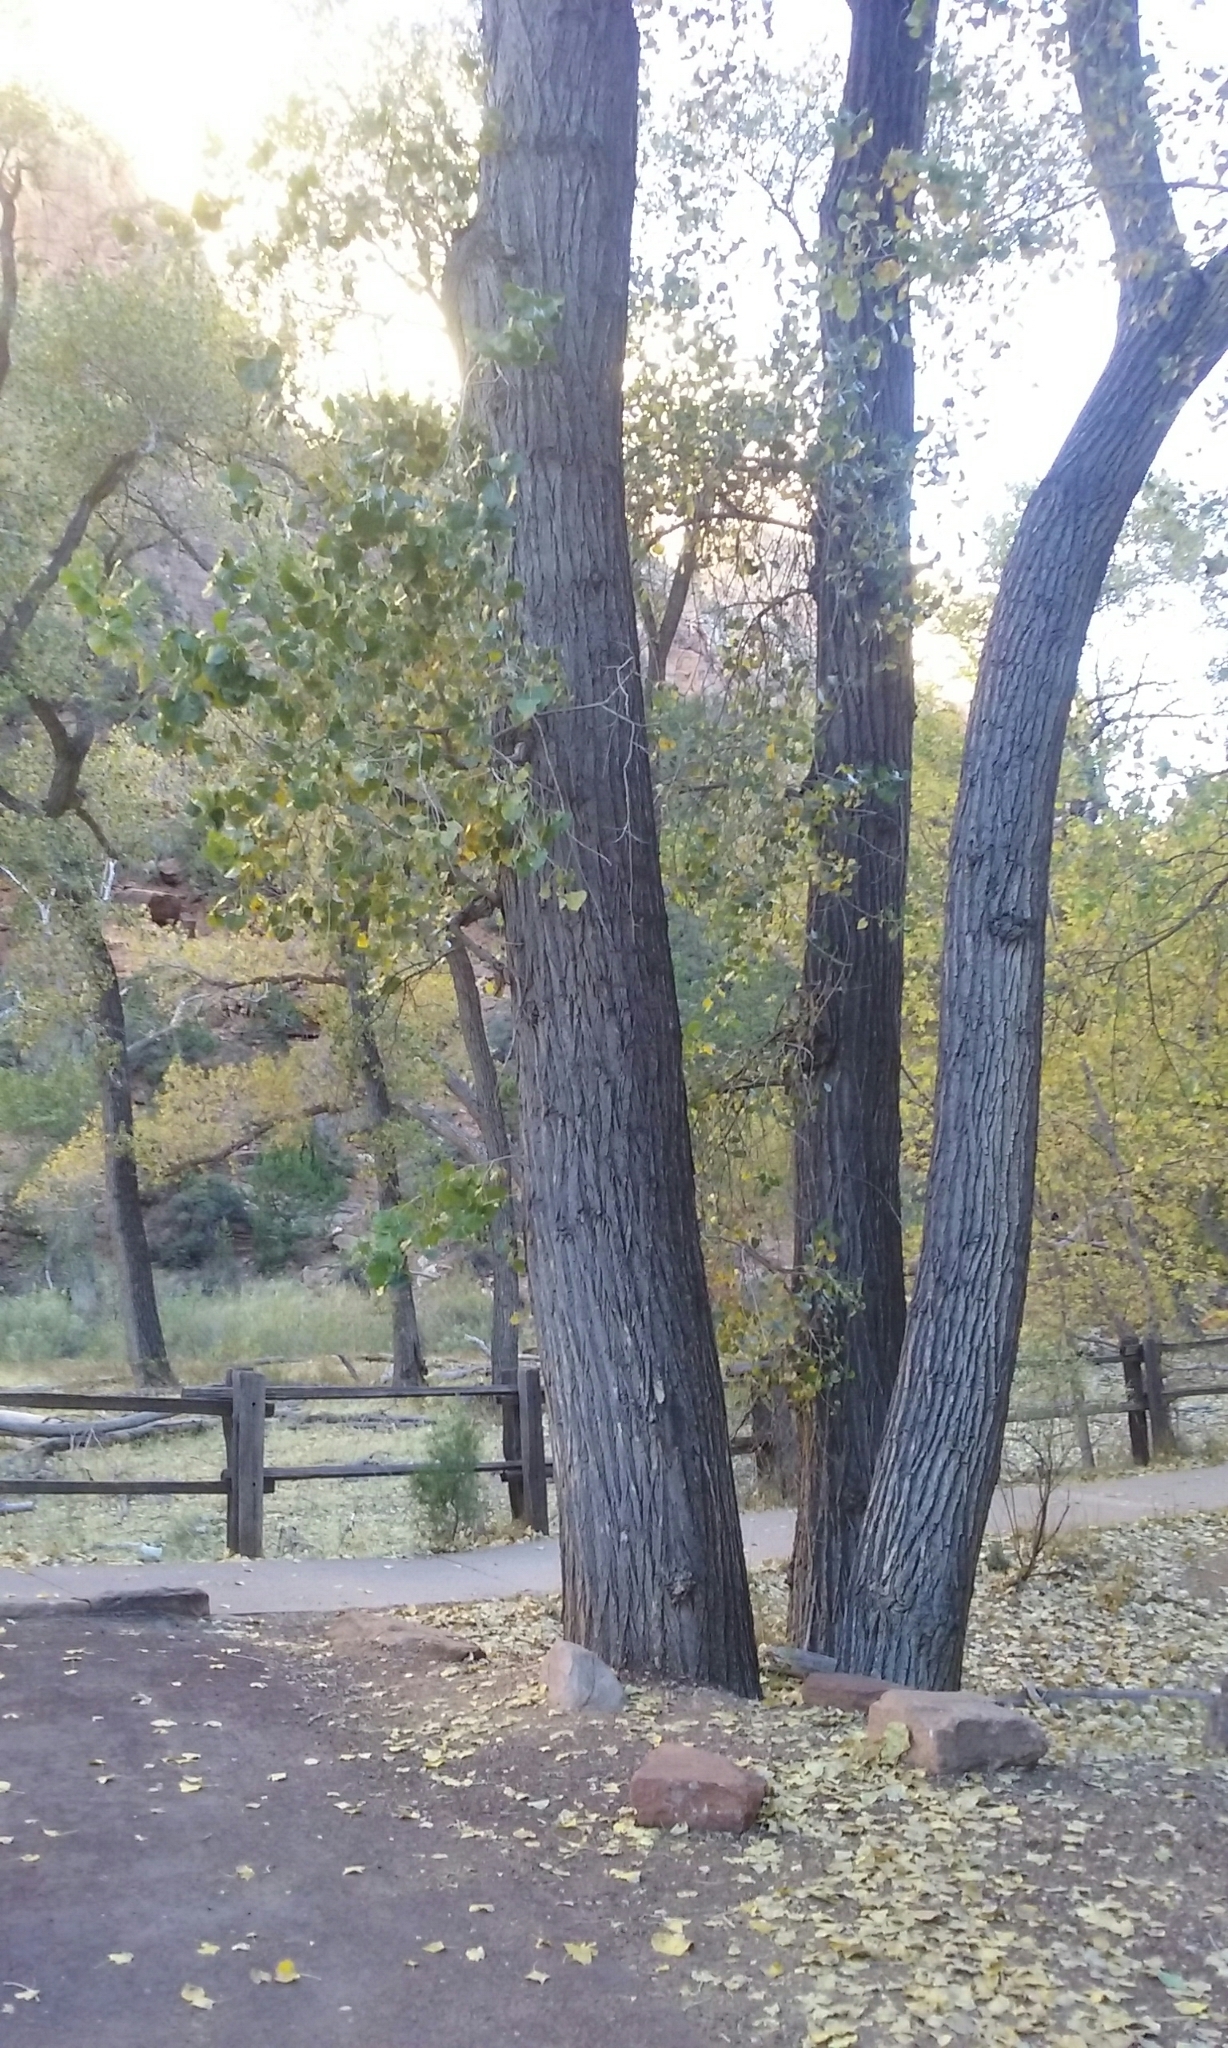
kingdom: Plantae
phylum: Tracheophyta
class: Magnoliopsida
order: Malpighiales
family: Salicaceae
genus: Populus
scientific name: Populus fremontii
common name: Fremont's cottonwood
